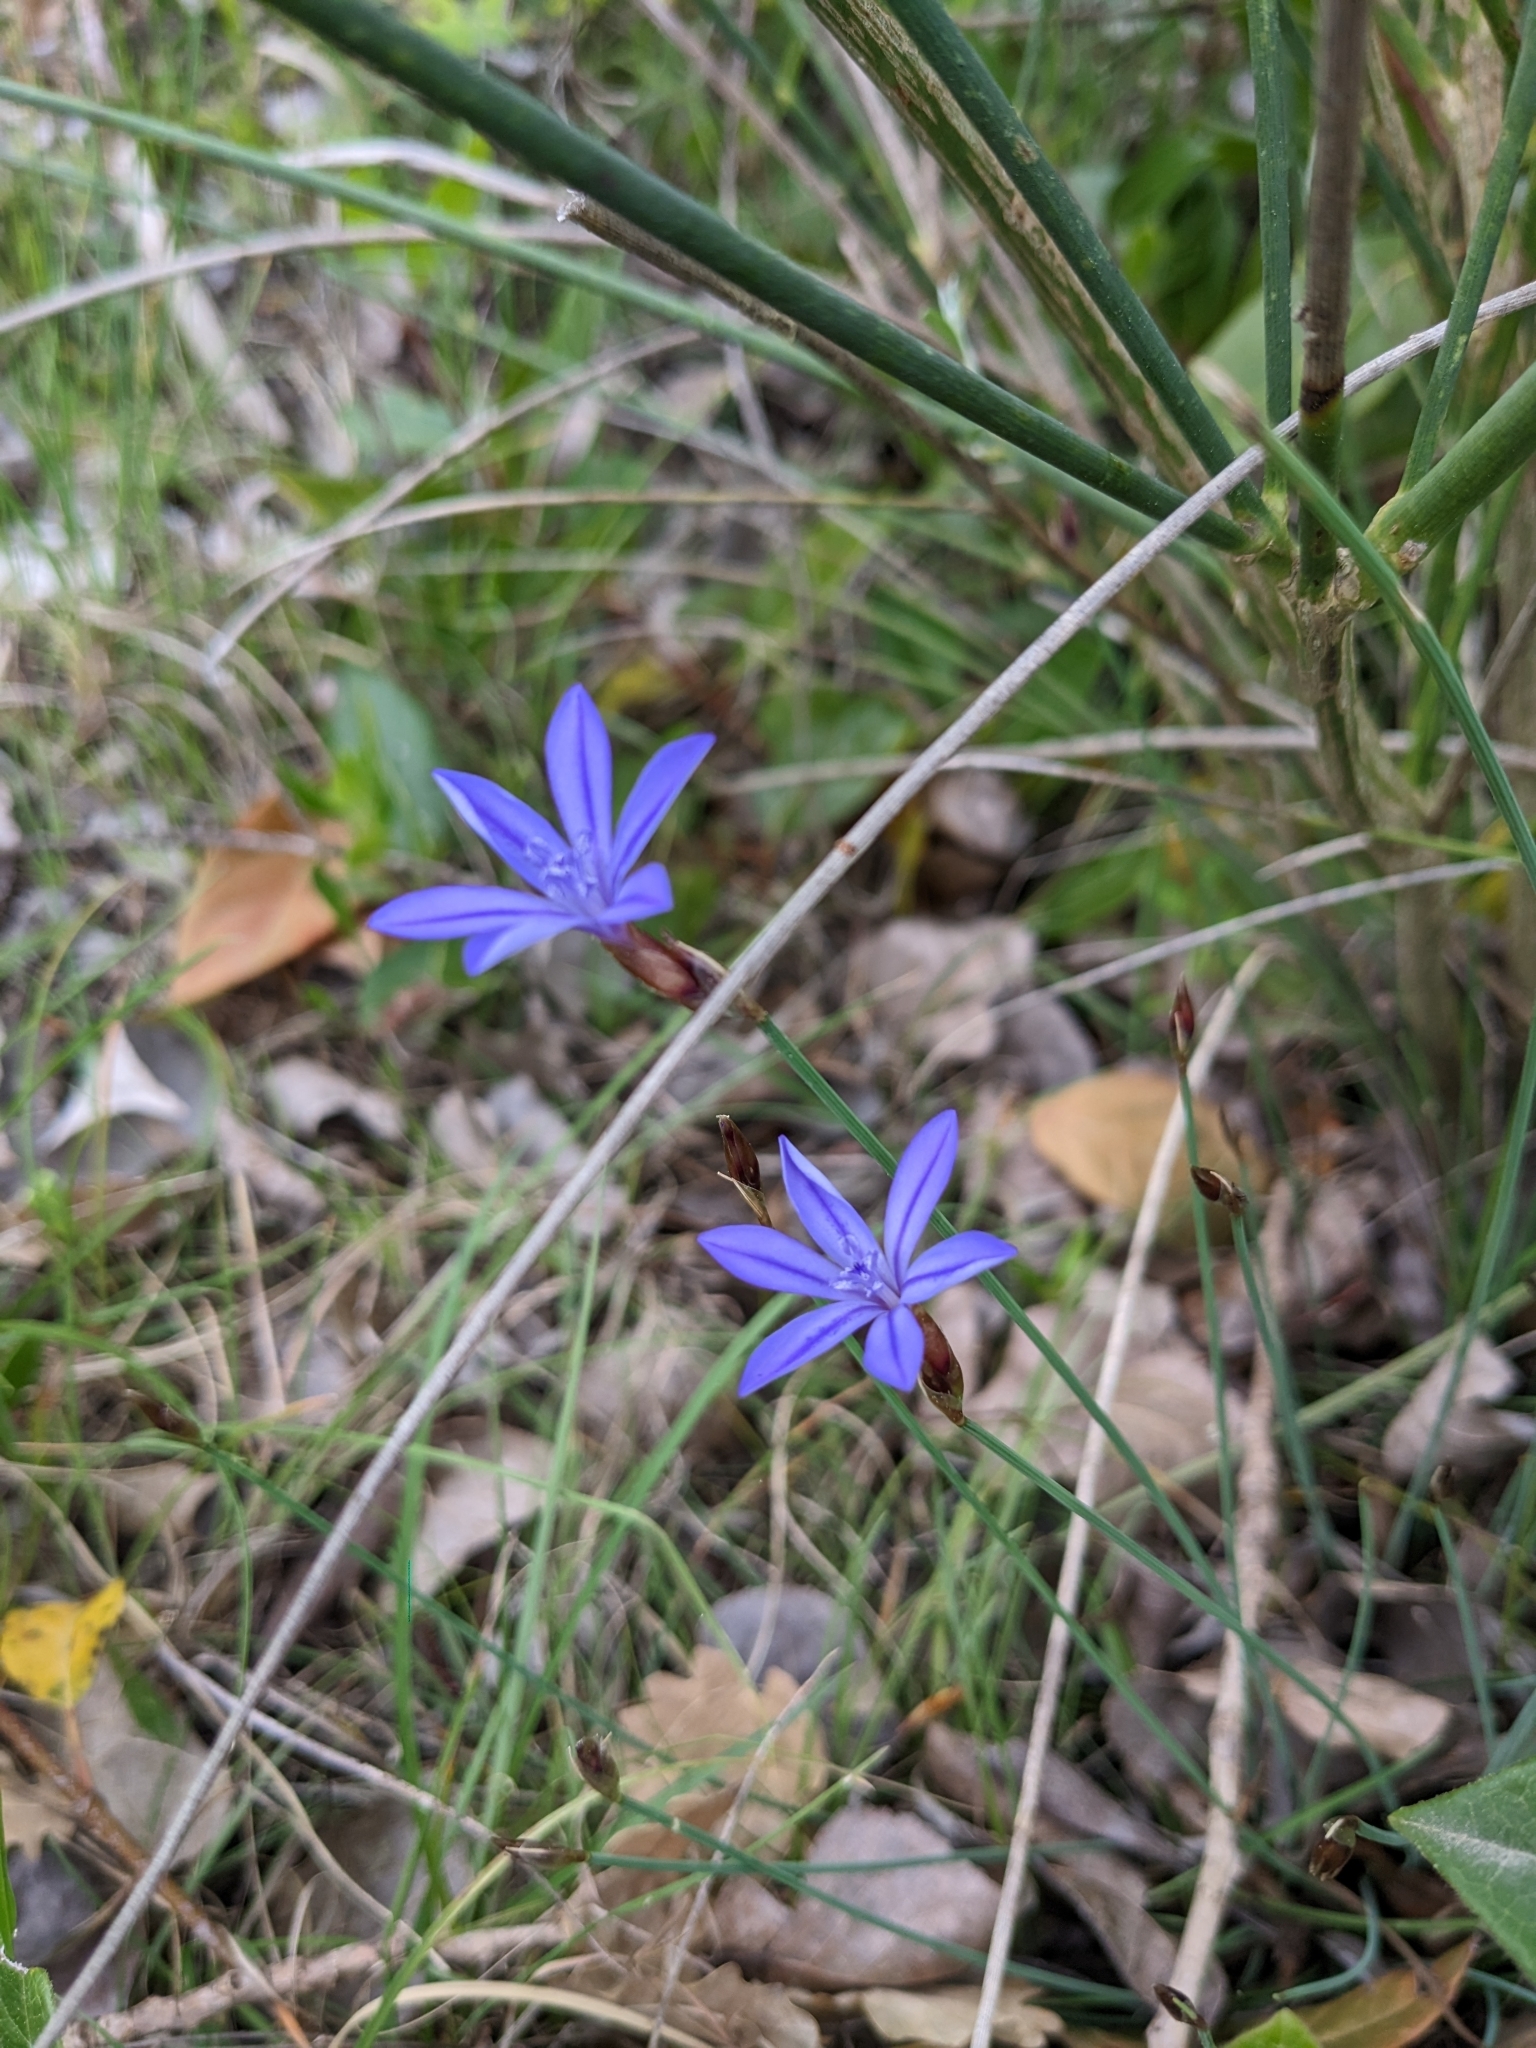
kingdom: Plantae
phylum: Tracheophyta
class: Liliopsida
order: Asparagales
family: Asparagaceae
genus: Aphyllanthes
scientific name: Aphyllanthes monspeliensis
